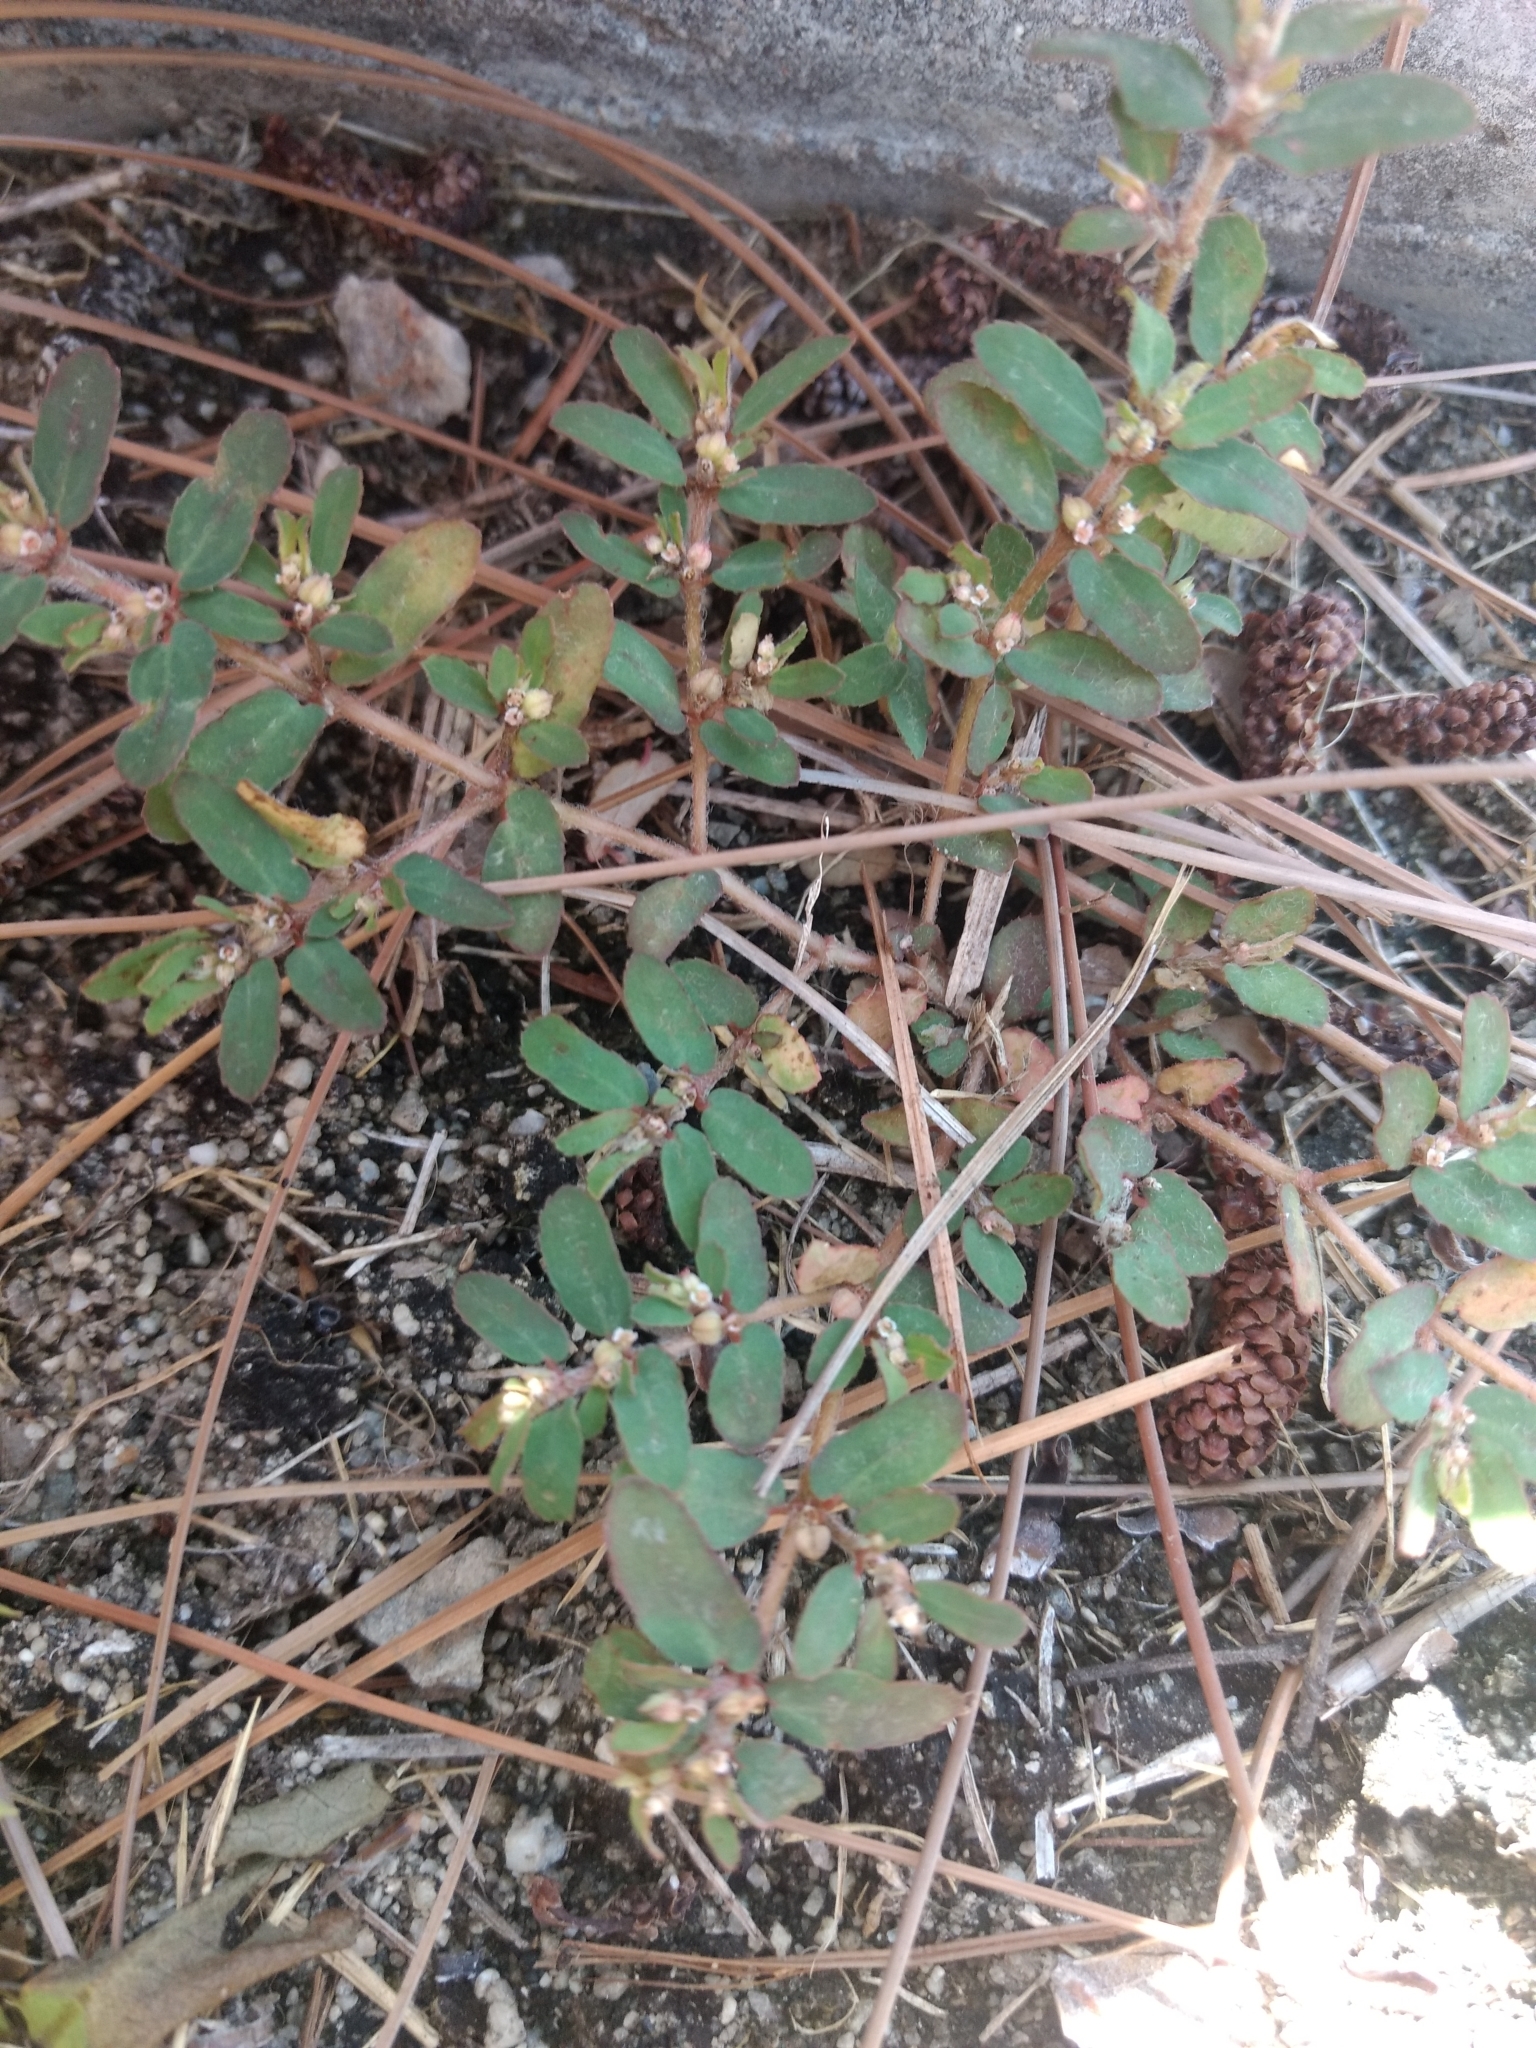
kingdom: Plantae
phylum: Tracheophyta
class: Magnoliopsida
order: Malpighiales
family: Euphorbiaceae
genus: Euphorbia
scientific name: Euphorbia maculata
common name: Spotted spurge
